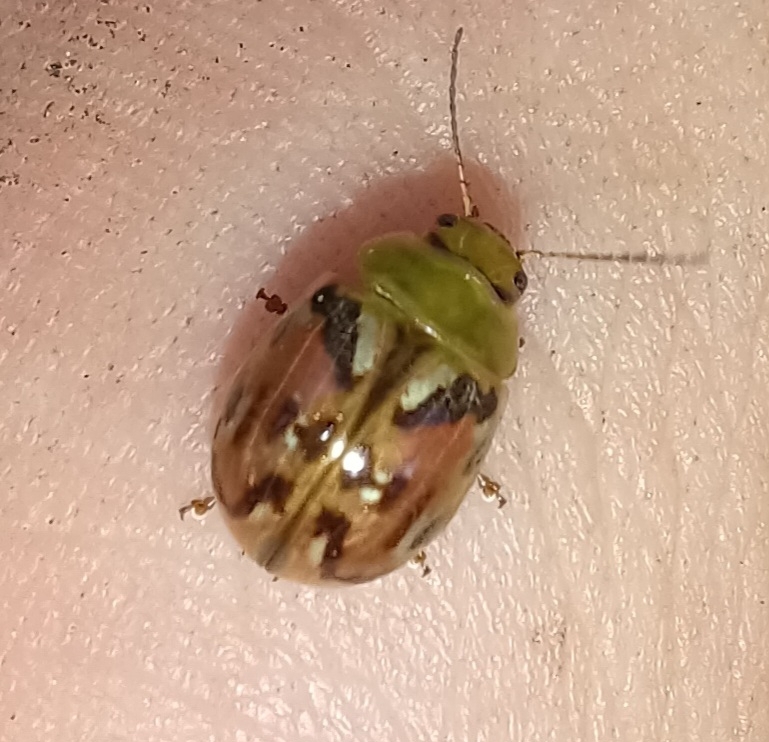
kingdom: Animalia
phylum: Arthropoda
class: Insecta
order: Coleoptera
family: Chrysomelidae
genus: Paropsisterna
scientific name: Paropsisterna
